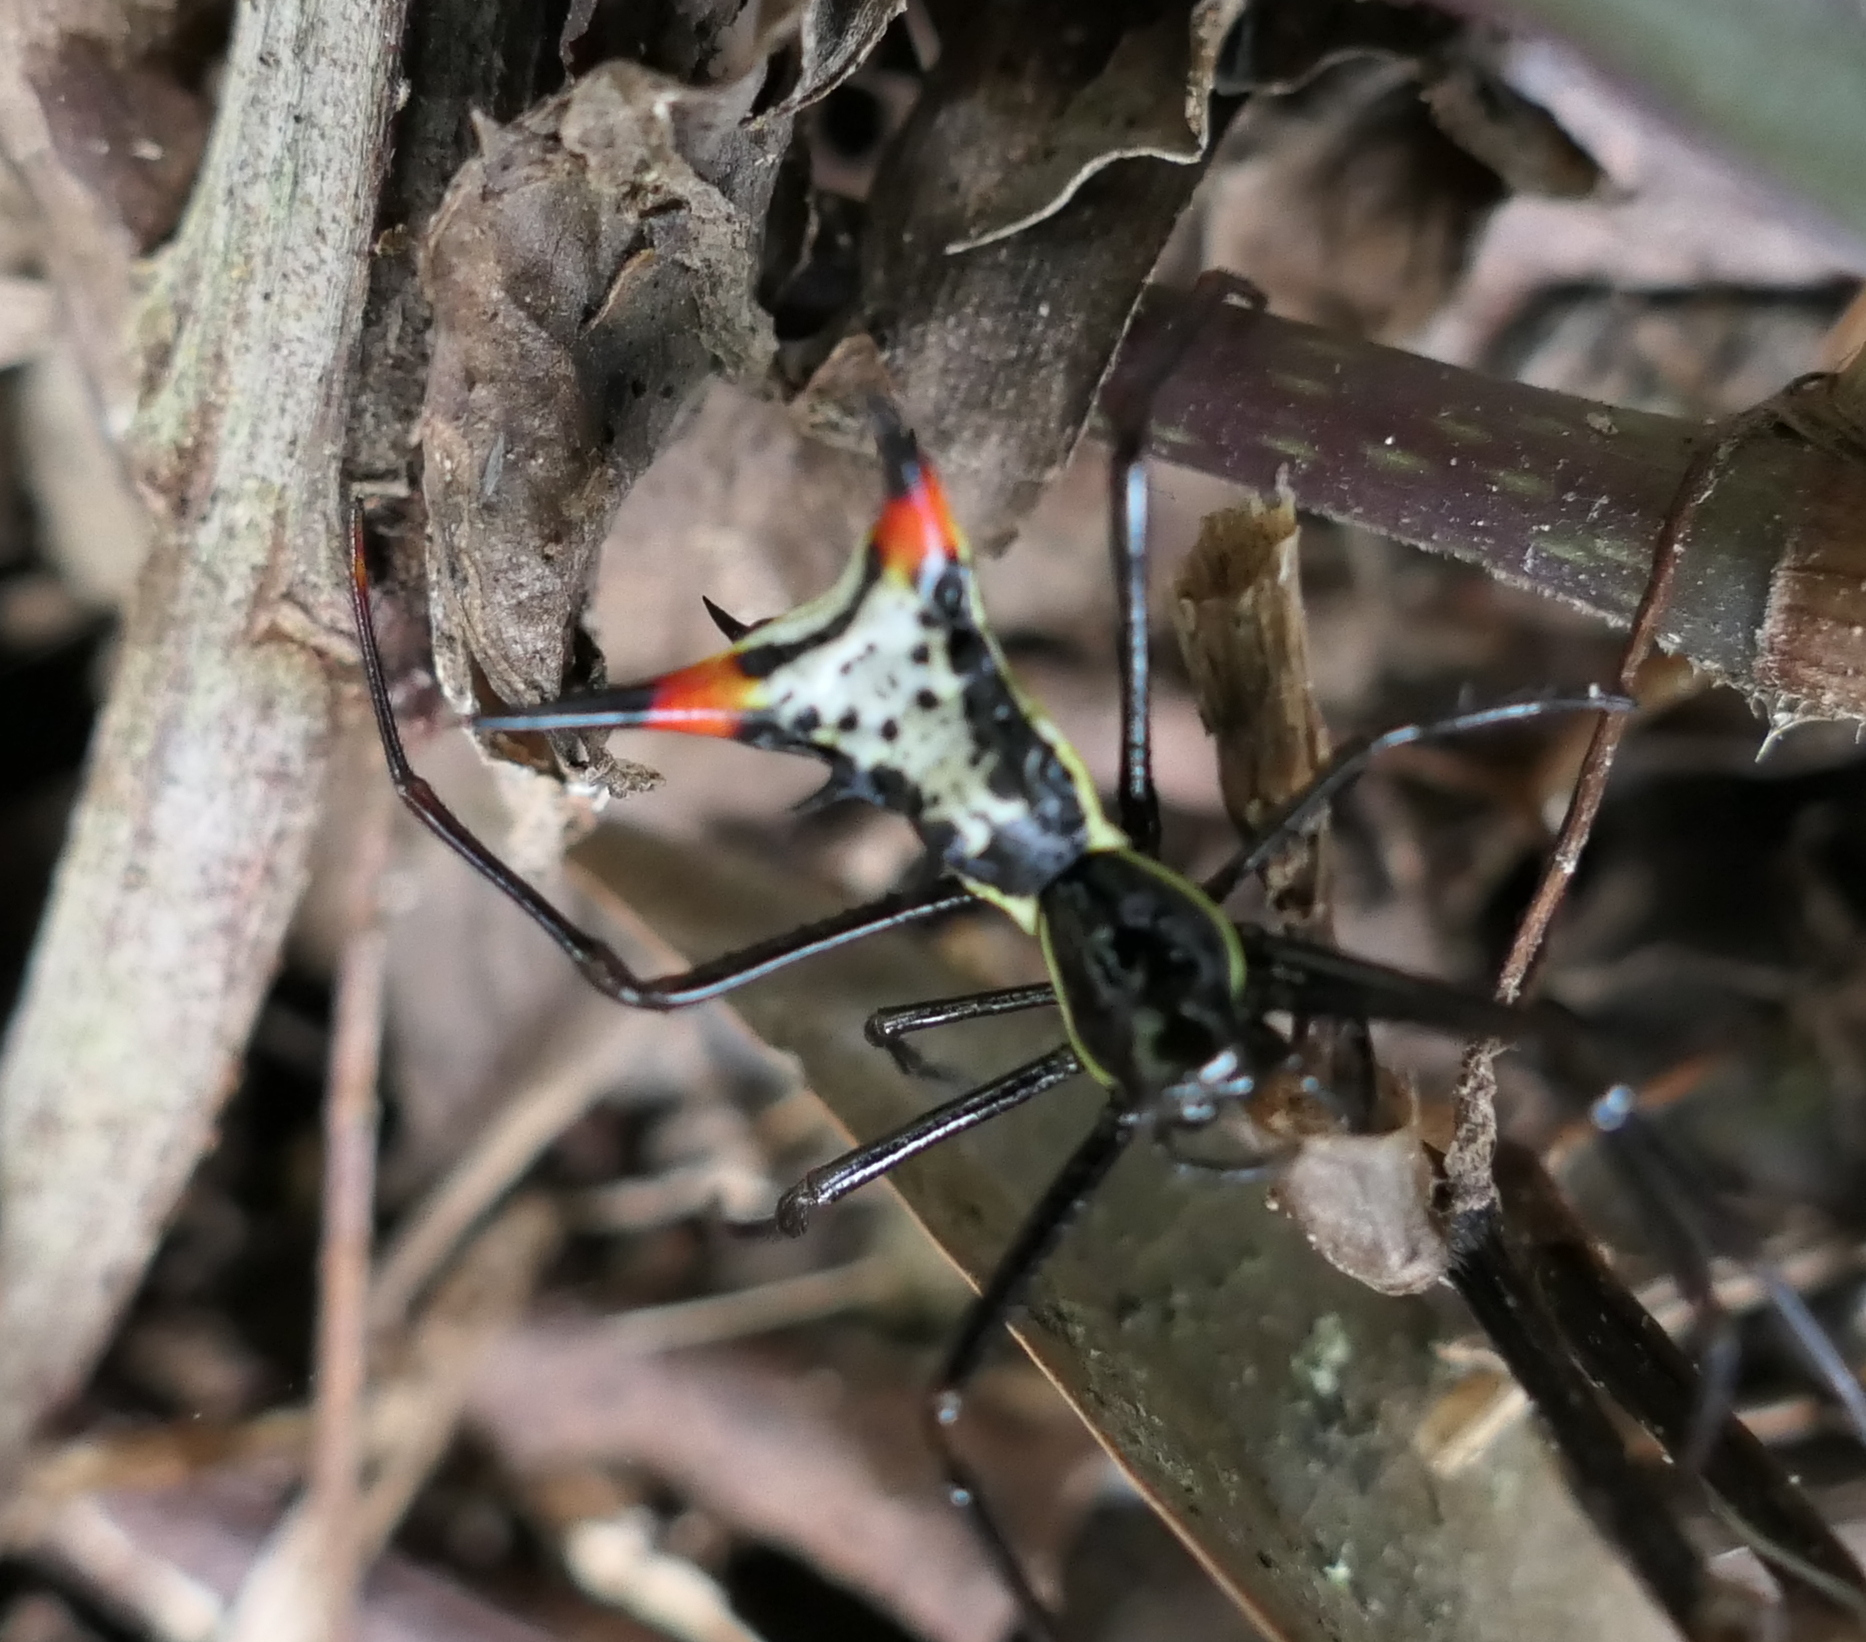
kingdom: Animalia
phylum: Arthropoda
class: Arachnida
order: Araneae
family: Araneidae
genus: Micrathena
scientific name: Micrathena schreibersi
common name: Orb weavers
